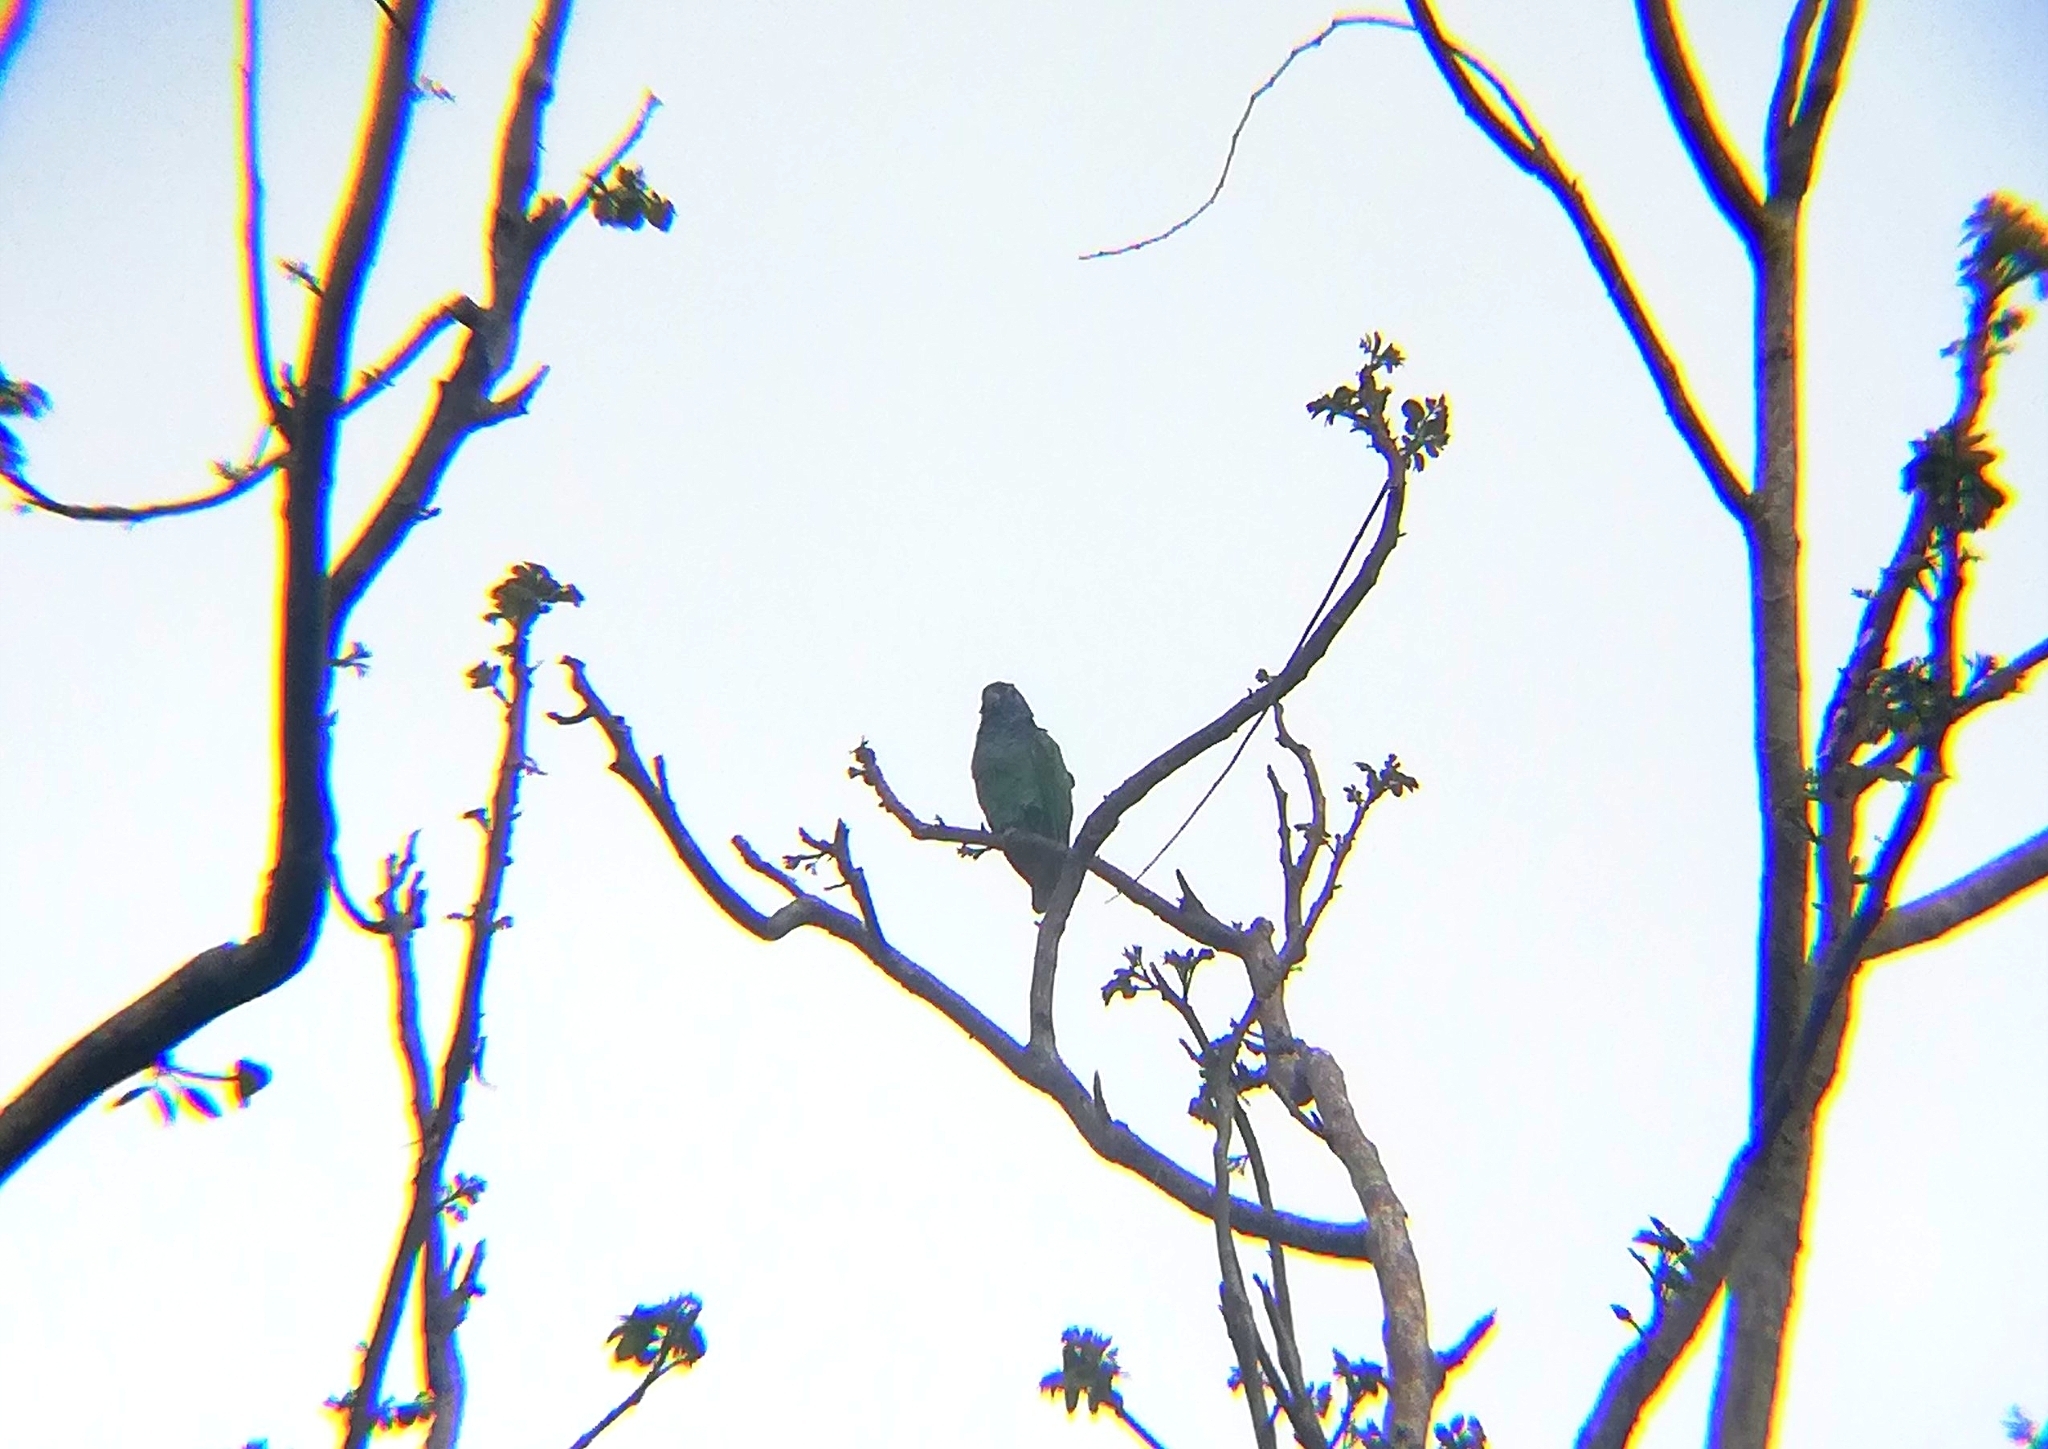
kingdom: Animalia
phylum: Chordata
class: Aves
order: Psittaciformes
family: Psittacidae
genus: Pionus
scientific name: Pionus menstruus
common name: Blue-headed parrot
